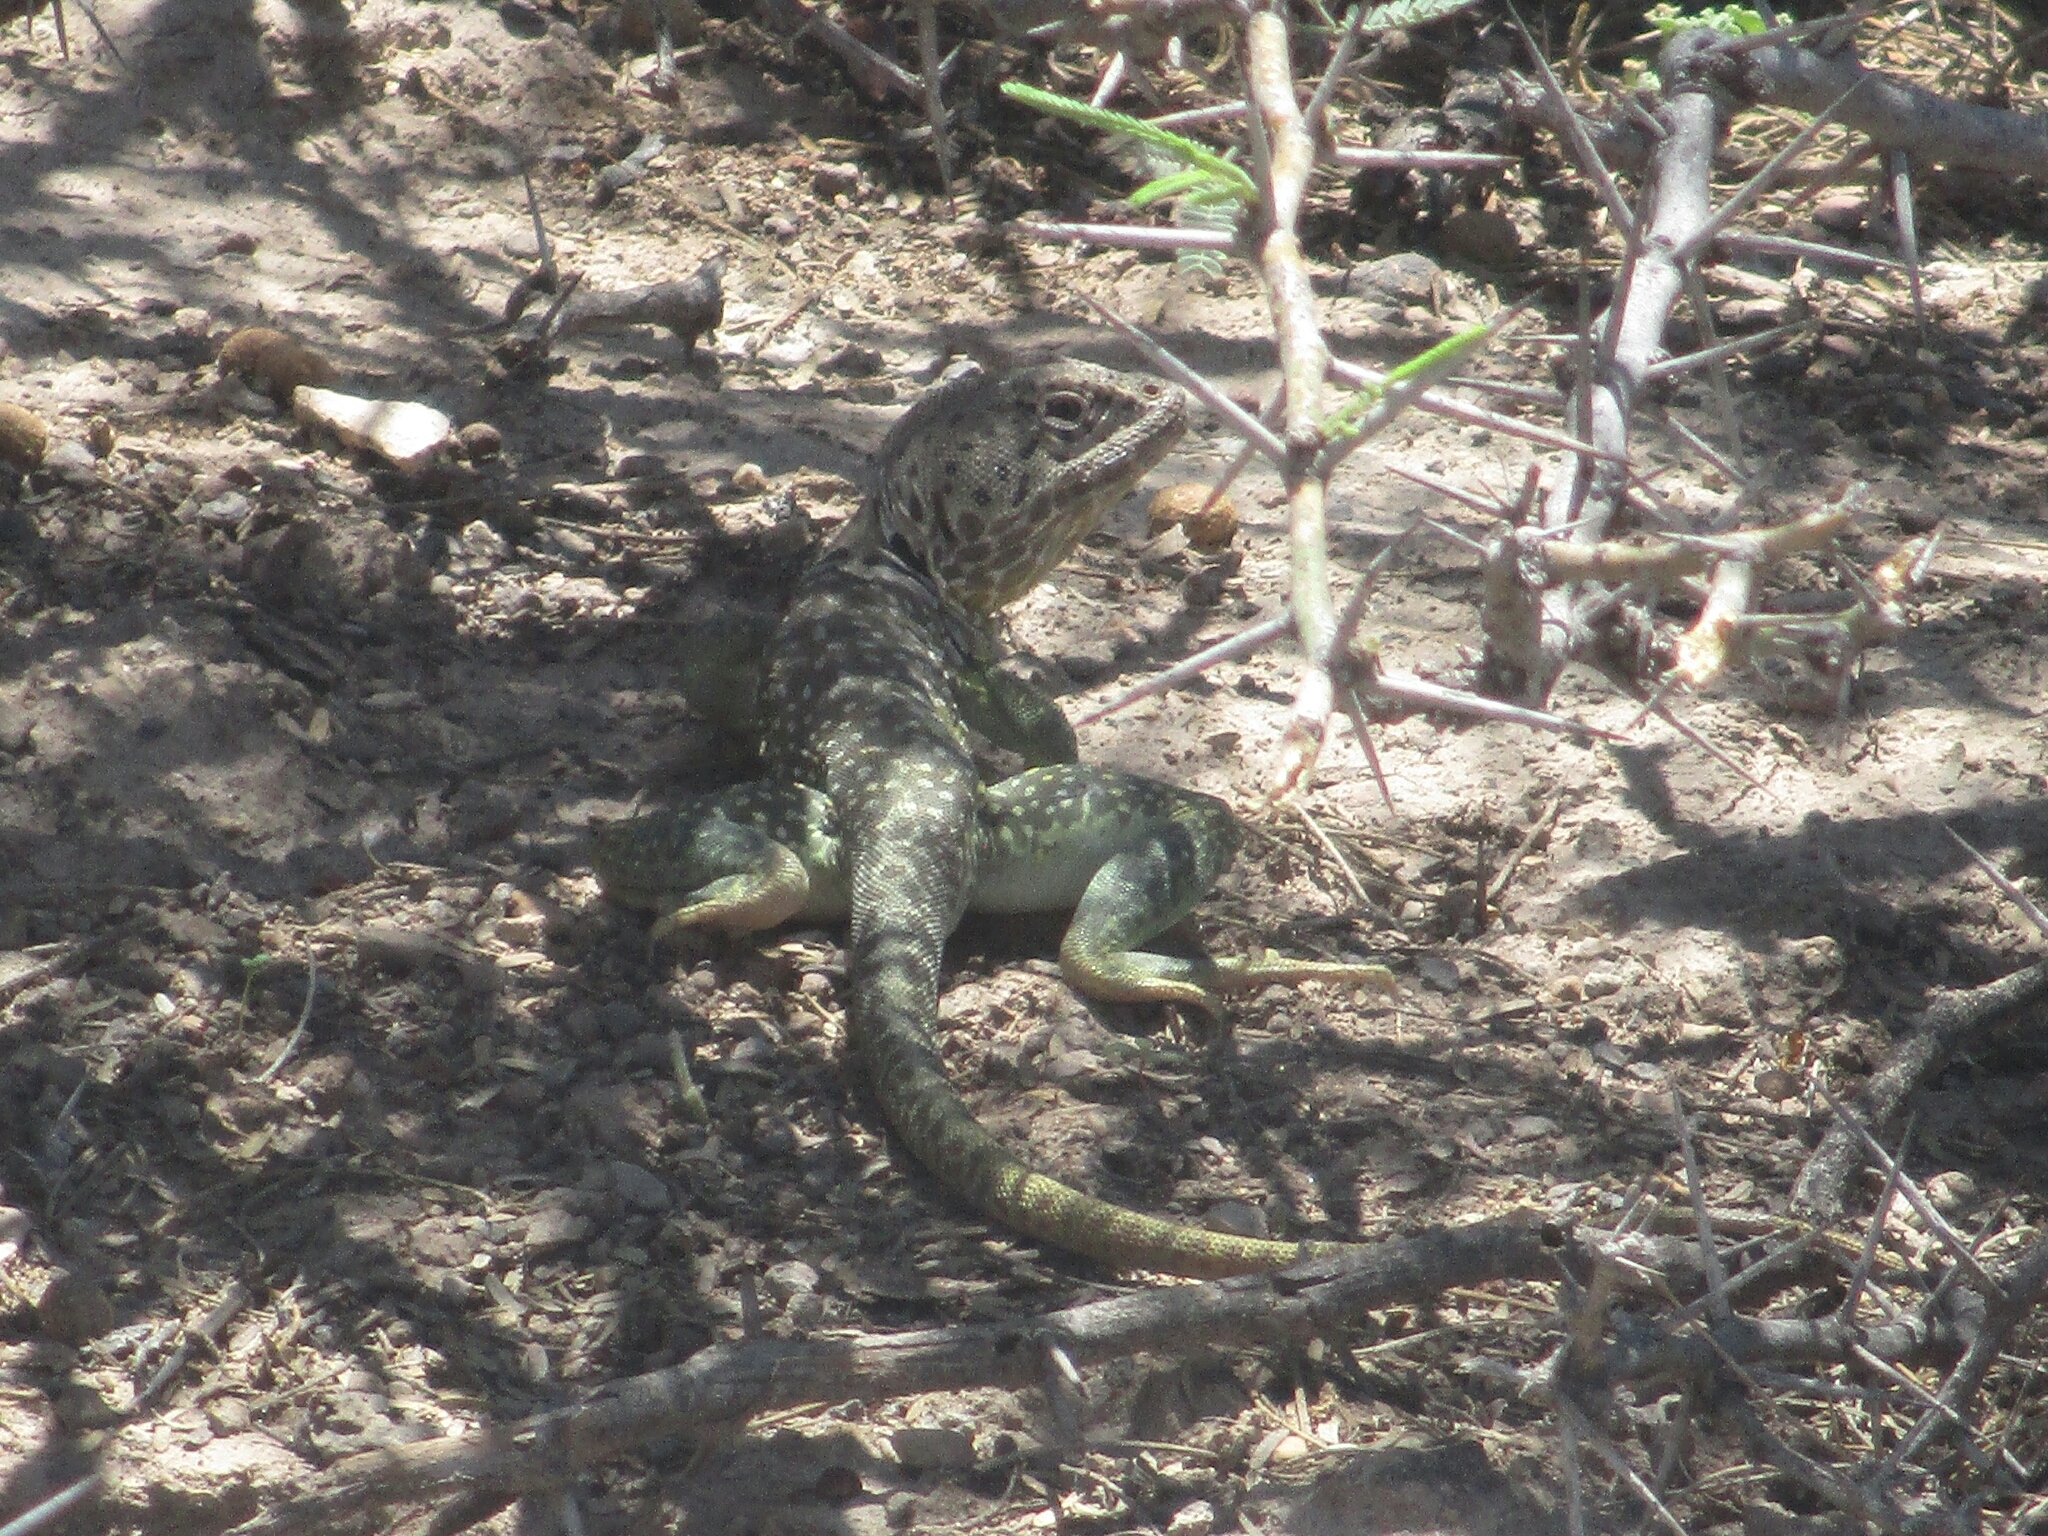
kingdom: Animalia
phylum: Chordata
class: Squamata
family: Crotaphytidae
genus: Crotaphytus
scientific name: Crotaphytus collaris
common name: Collared lizard
